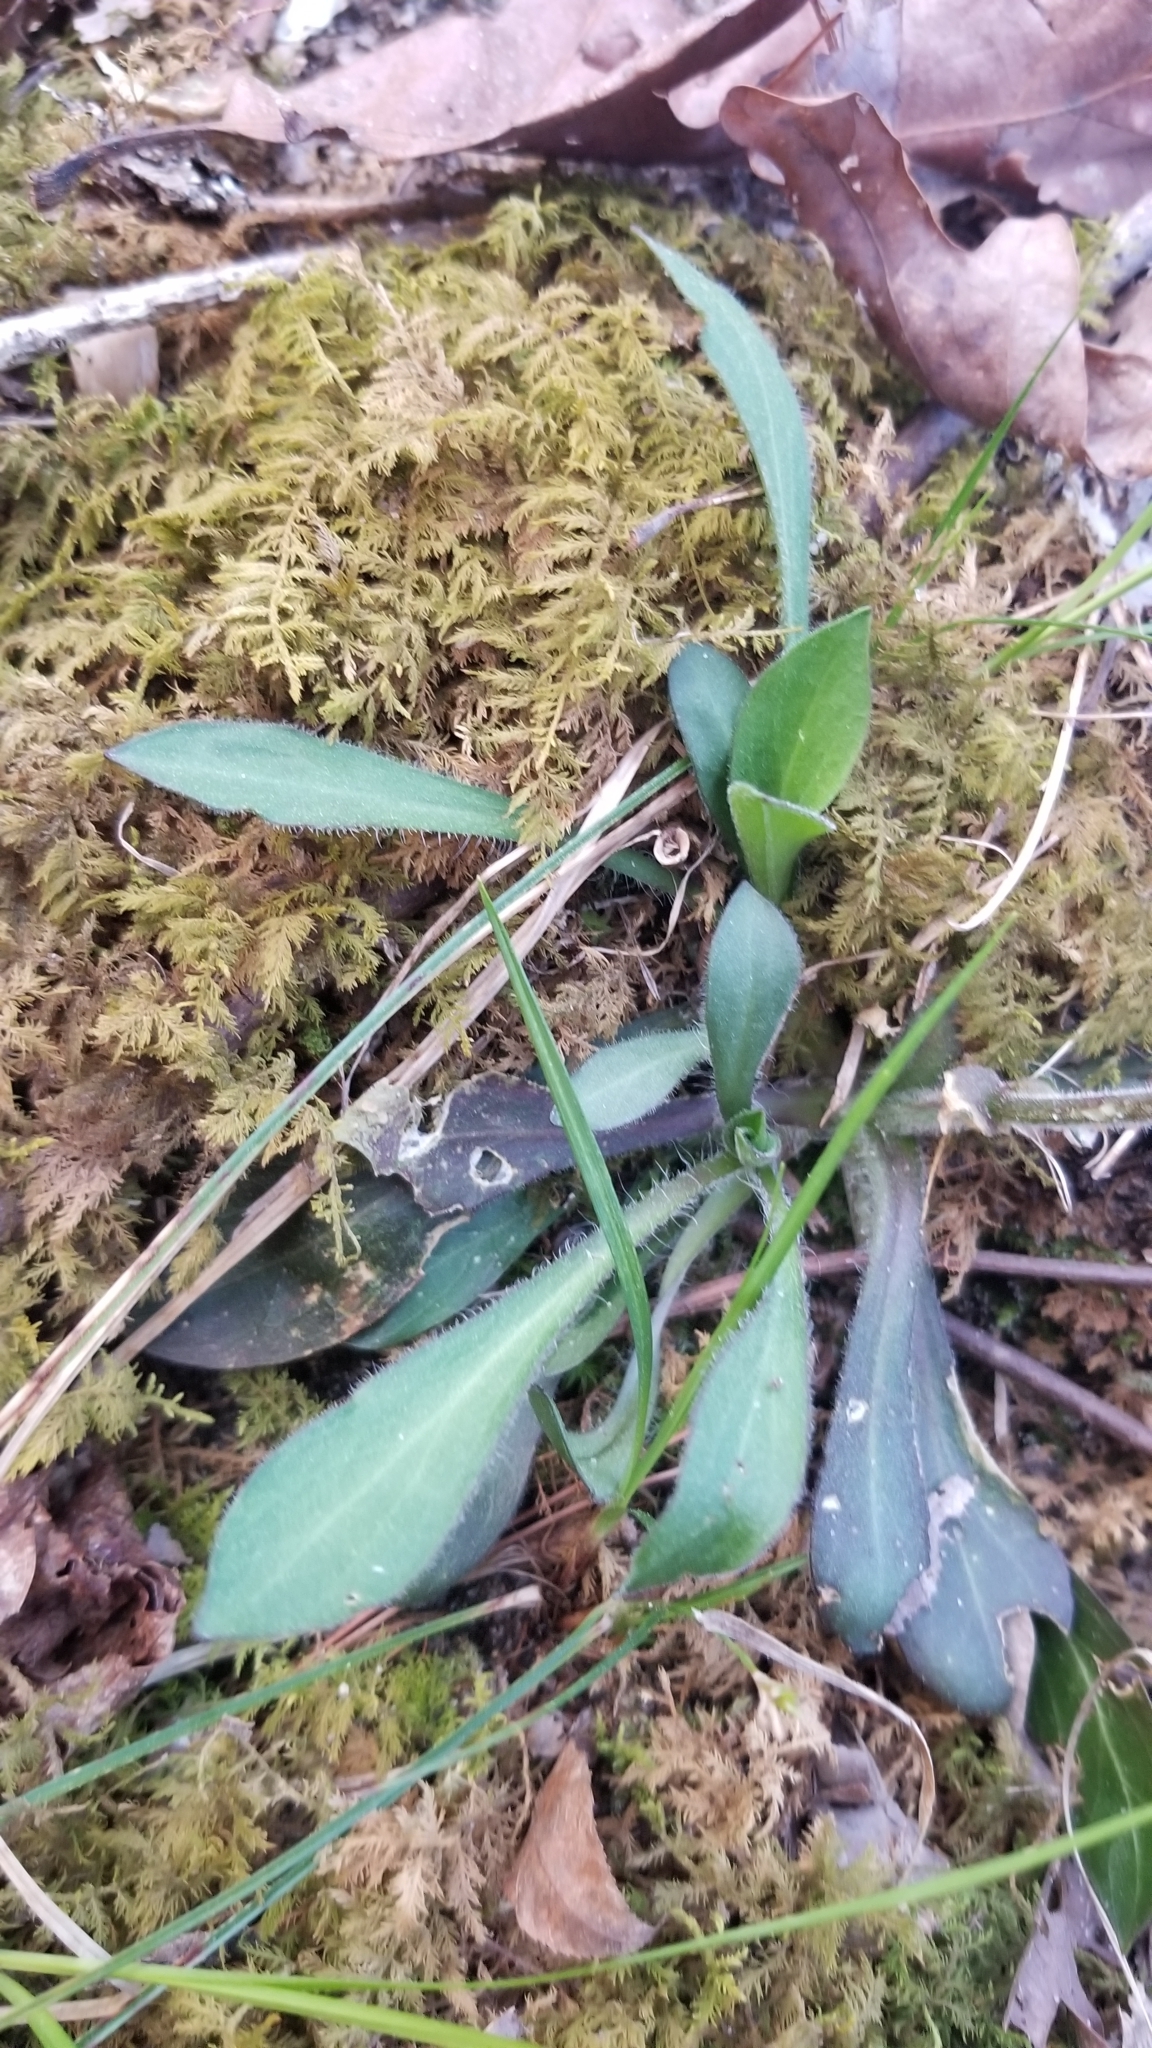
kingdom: Plantae
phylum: Tracheophyta
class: Magnoliopsida
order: Caryophyllales
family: Caryophyllaceae
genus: Silene
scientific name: Silene virginica
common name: Fire-pink
